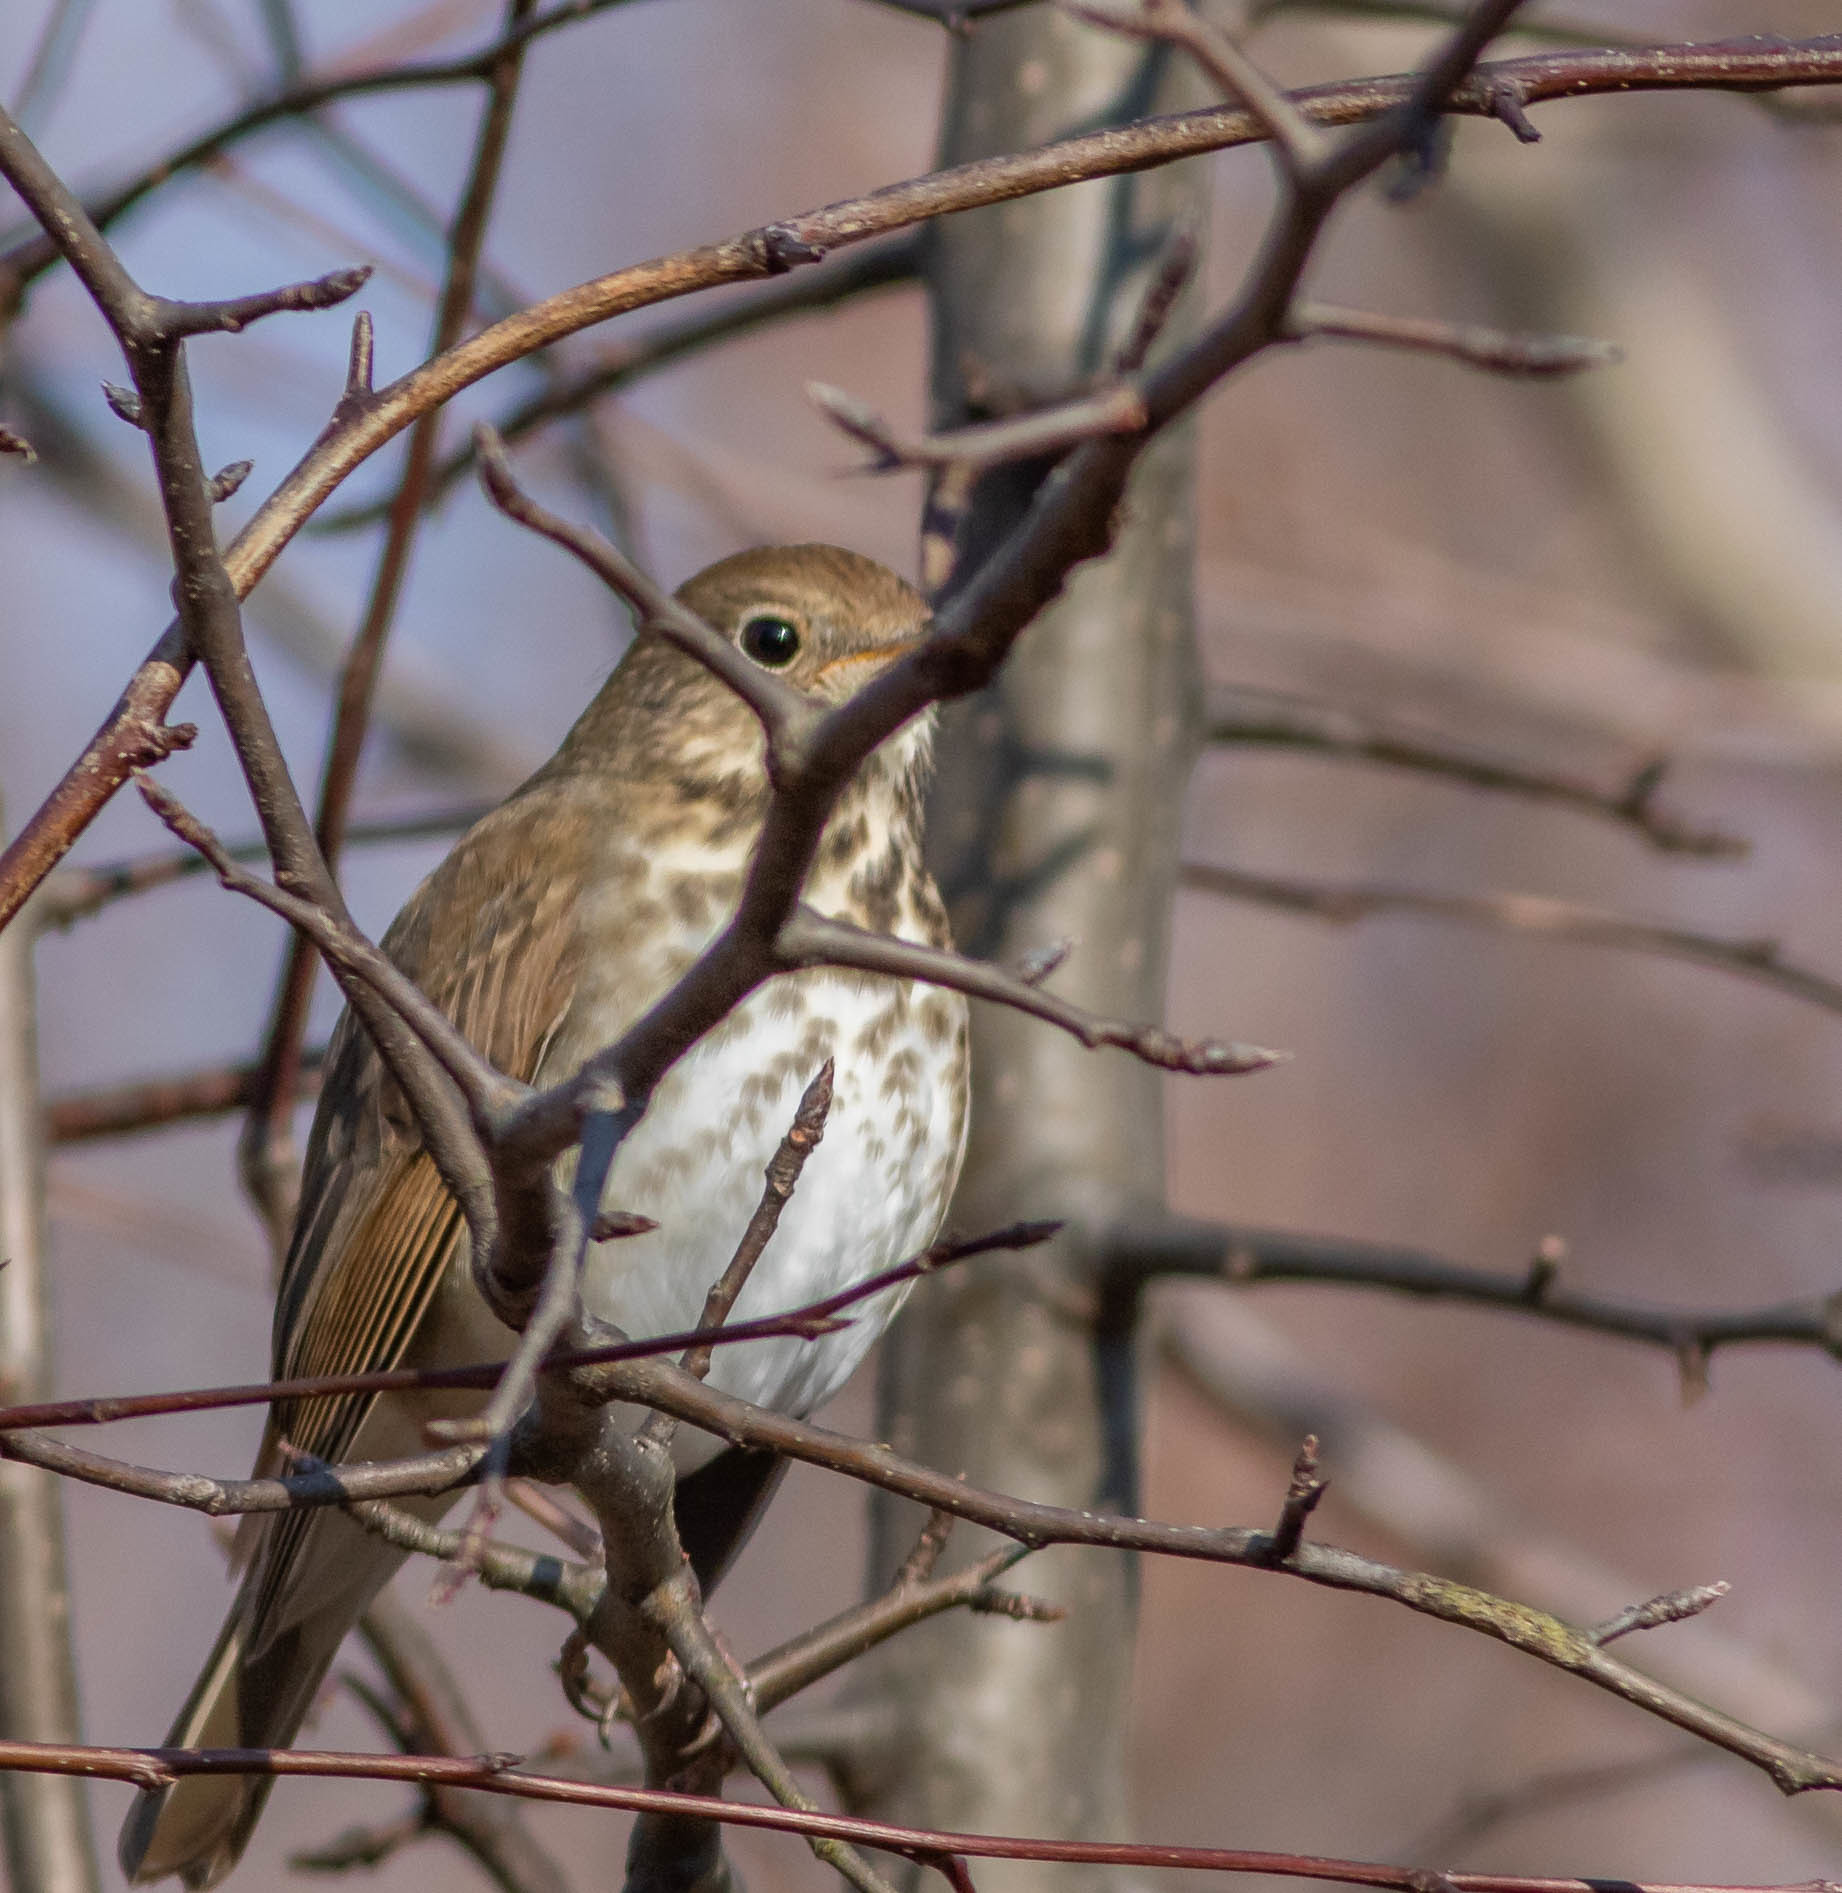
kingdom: Animalia
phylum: Chordata
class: Aves
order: Passeriformes
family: Turdidae
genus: Catharus
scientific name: Catharus guttatus
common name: Hermit thrush
